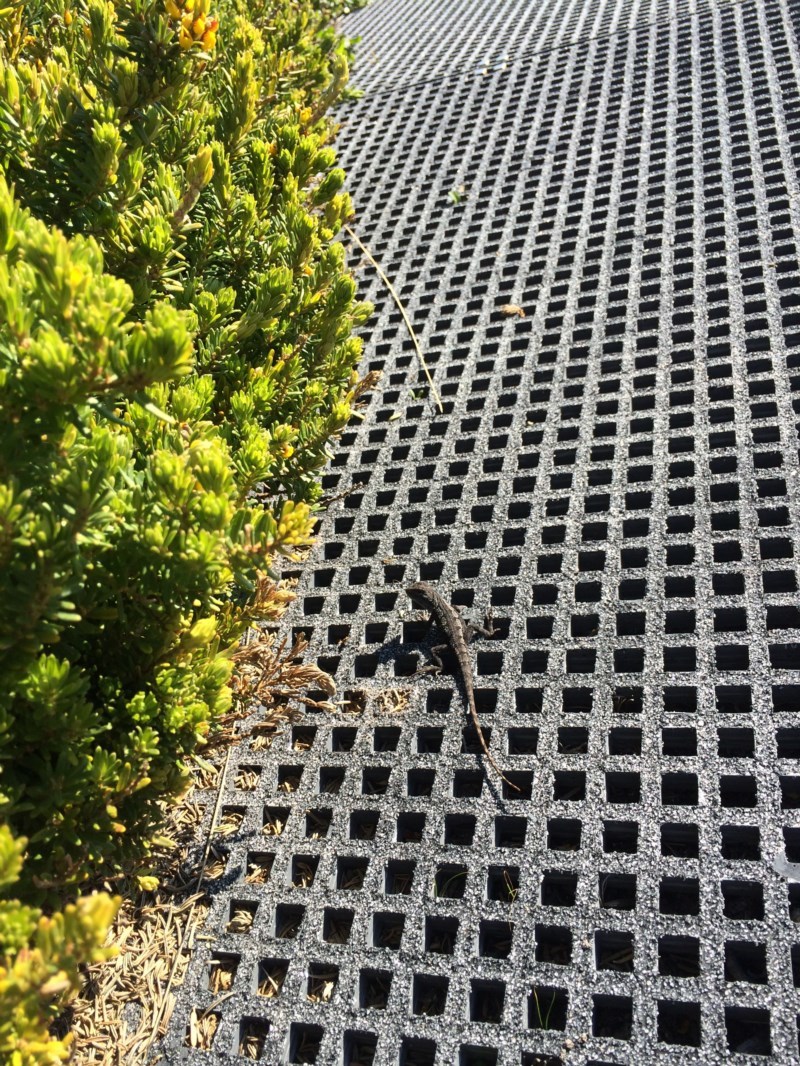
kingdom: Animalia
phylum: Chordata
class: Squamata
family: Agamidae
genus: Amphibolurus
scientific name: Amphibolurus muricatus
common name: Jacky lizard
